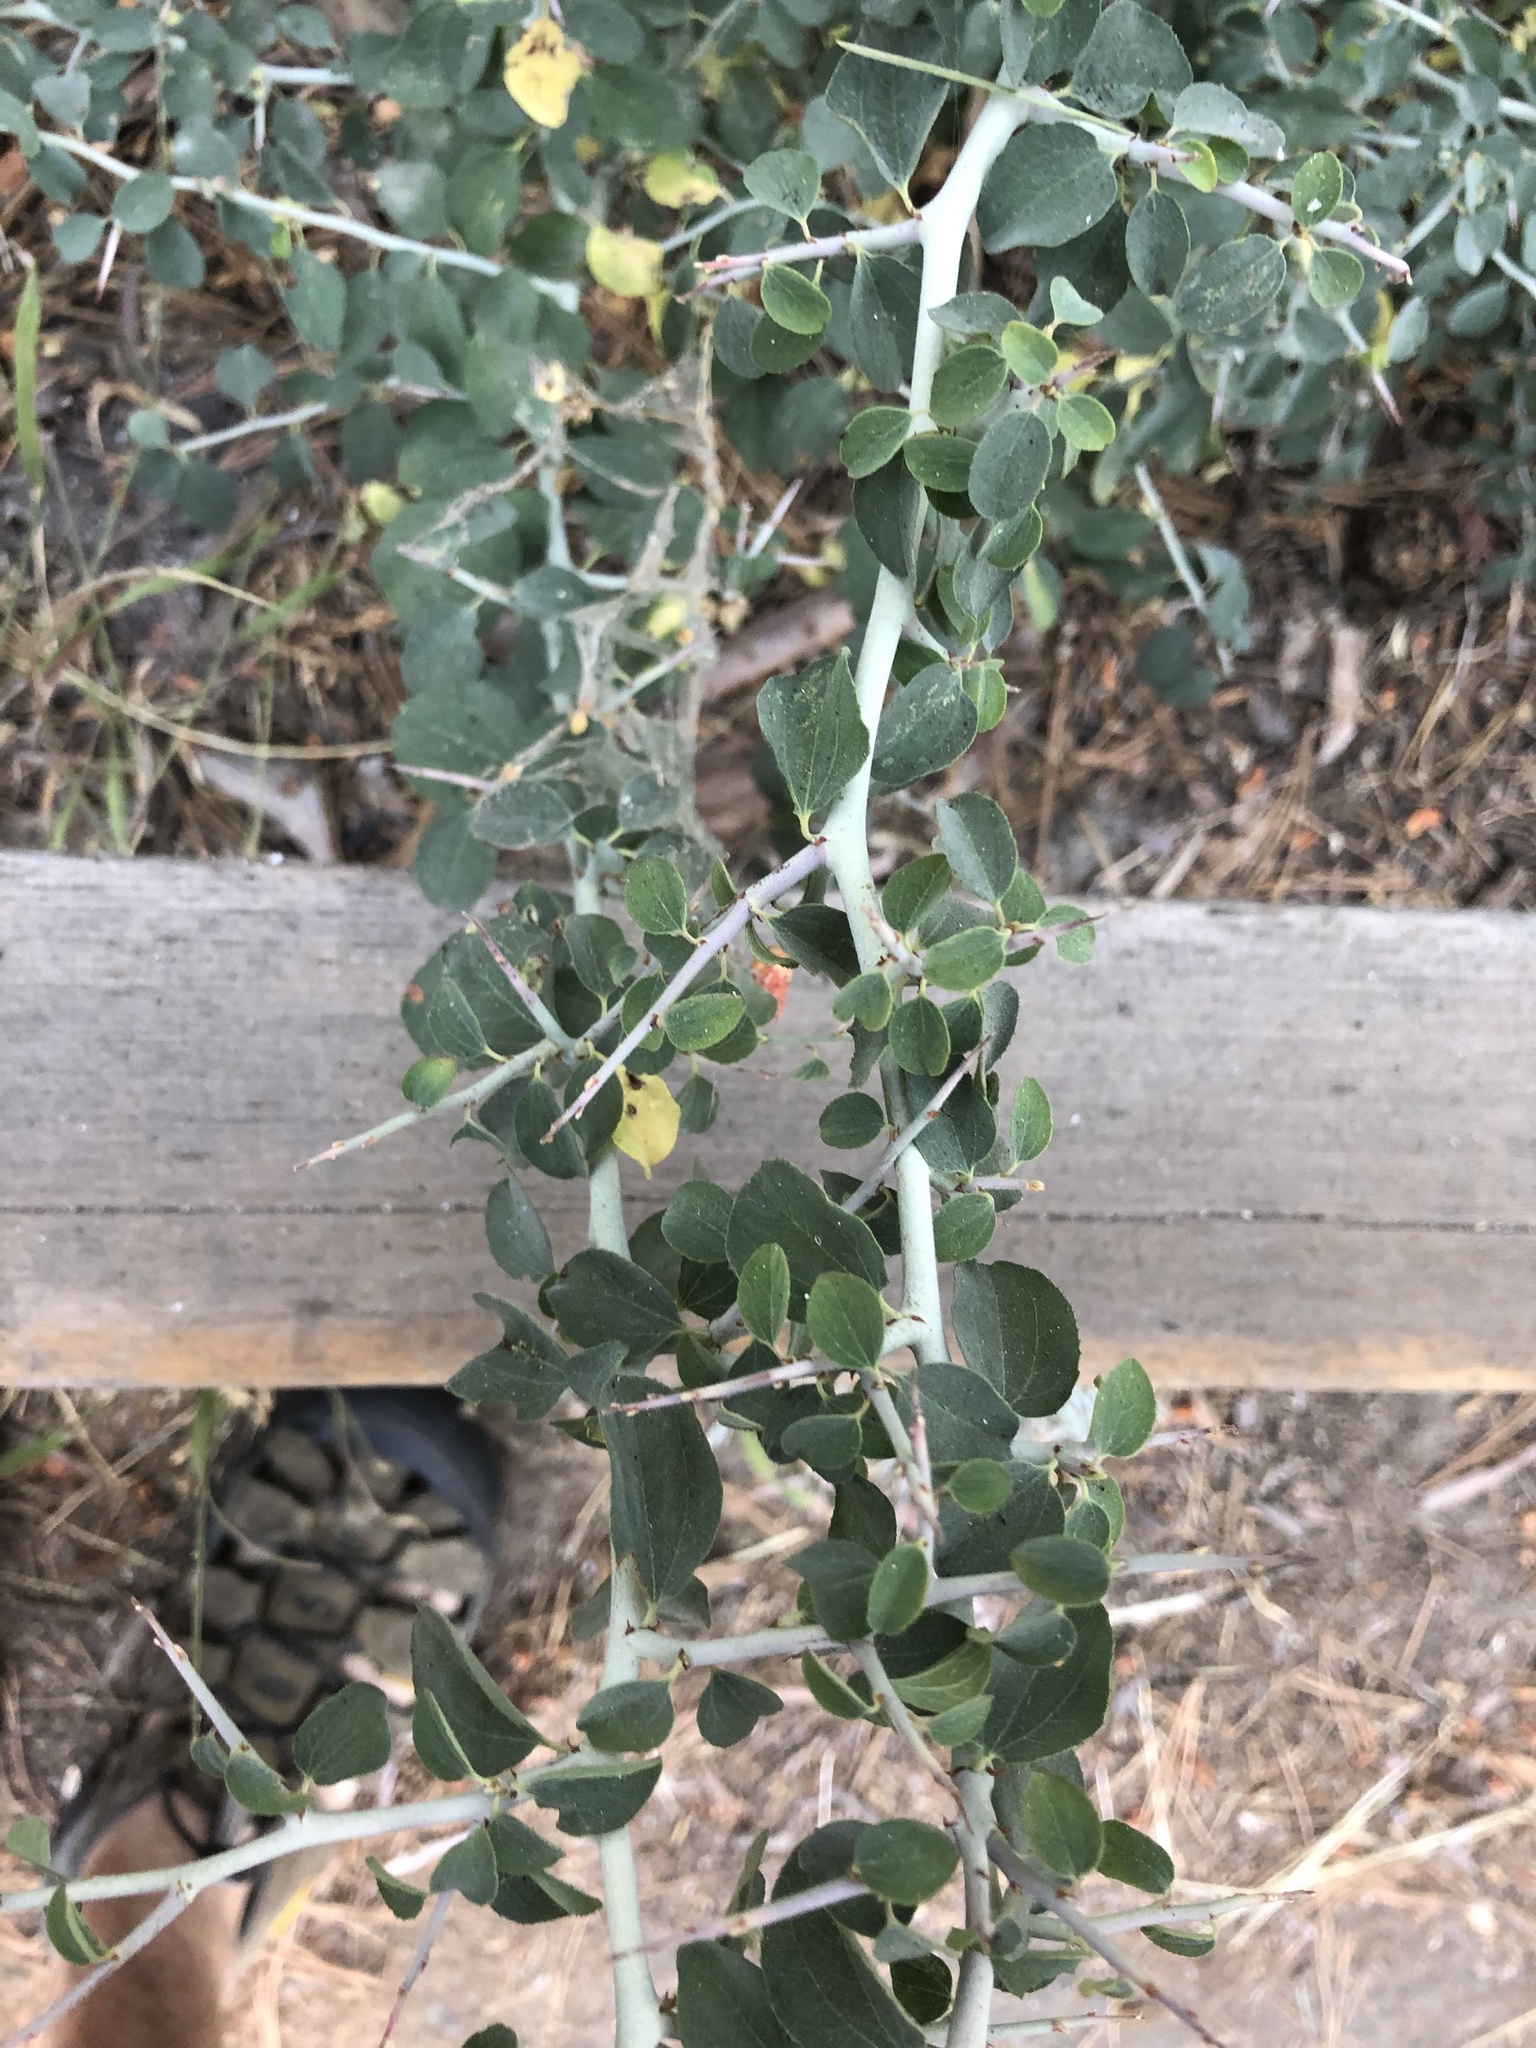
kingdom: Plantae
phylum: Tracheophyta
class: Magnoliopsida
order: Rosales
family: Rhamnaceae
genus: Ceanothus
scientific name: Ceanothus cordulatus
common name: Mountain whitethorn
